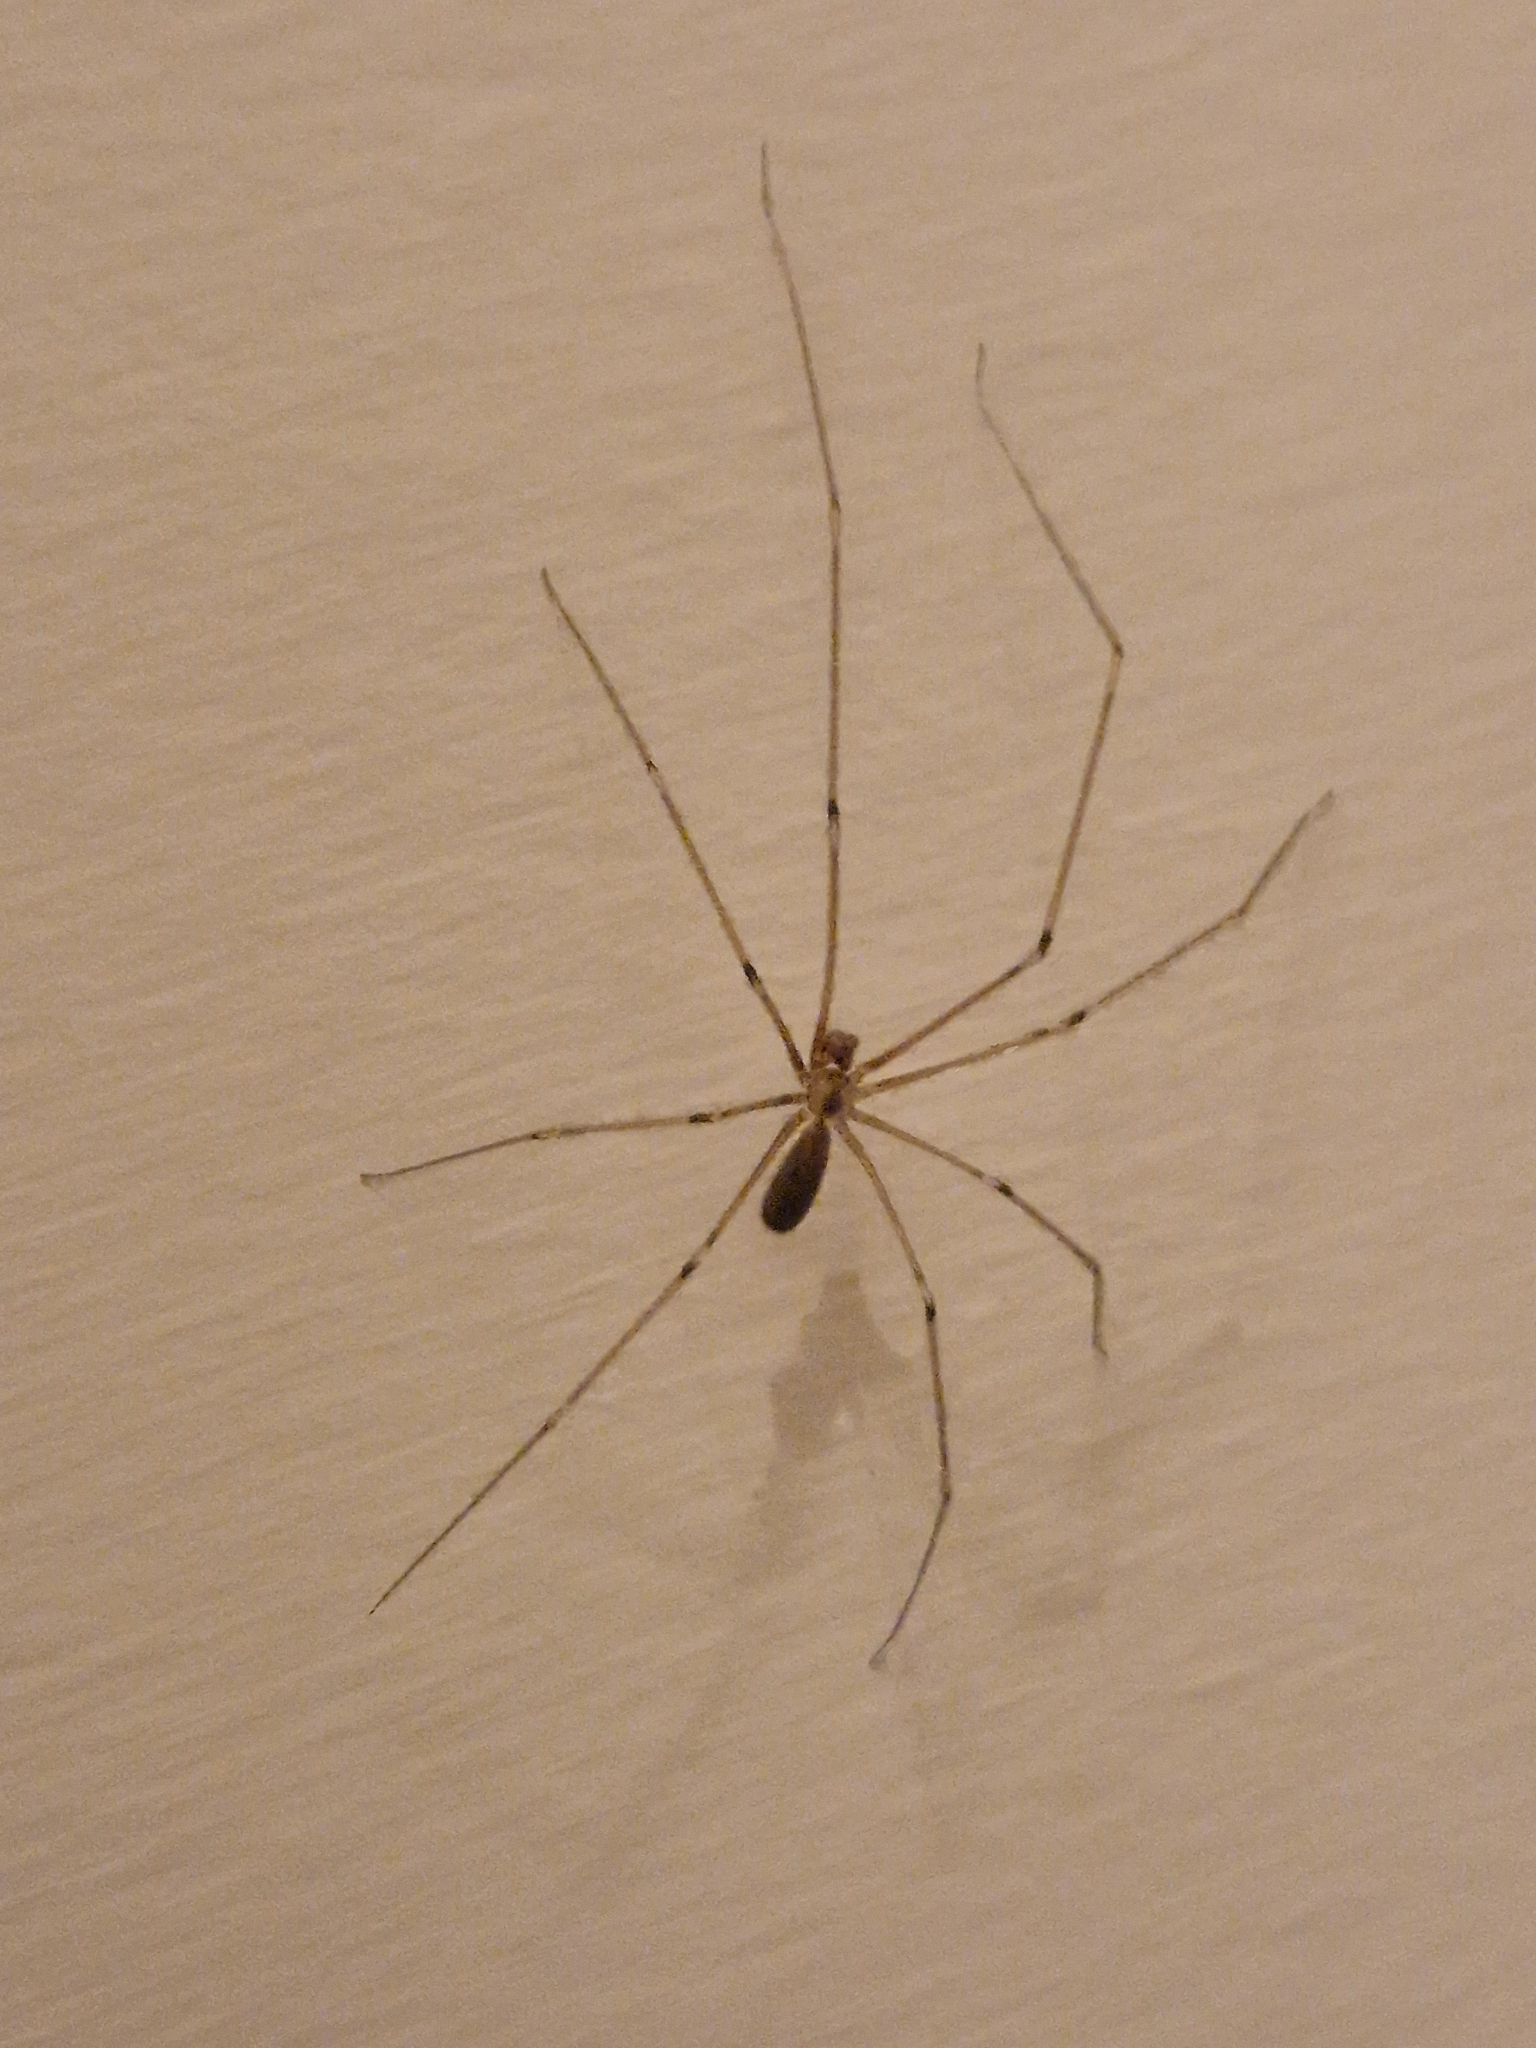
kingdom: Animalia
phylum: Arthropoda
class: Arachnida
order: Araneae
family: Pholcidae
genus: Pholcus
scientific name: Pholcus phalangioides
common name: Longbodied cellar spider
